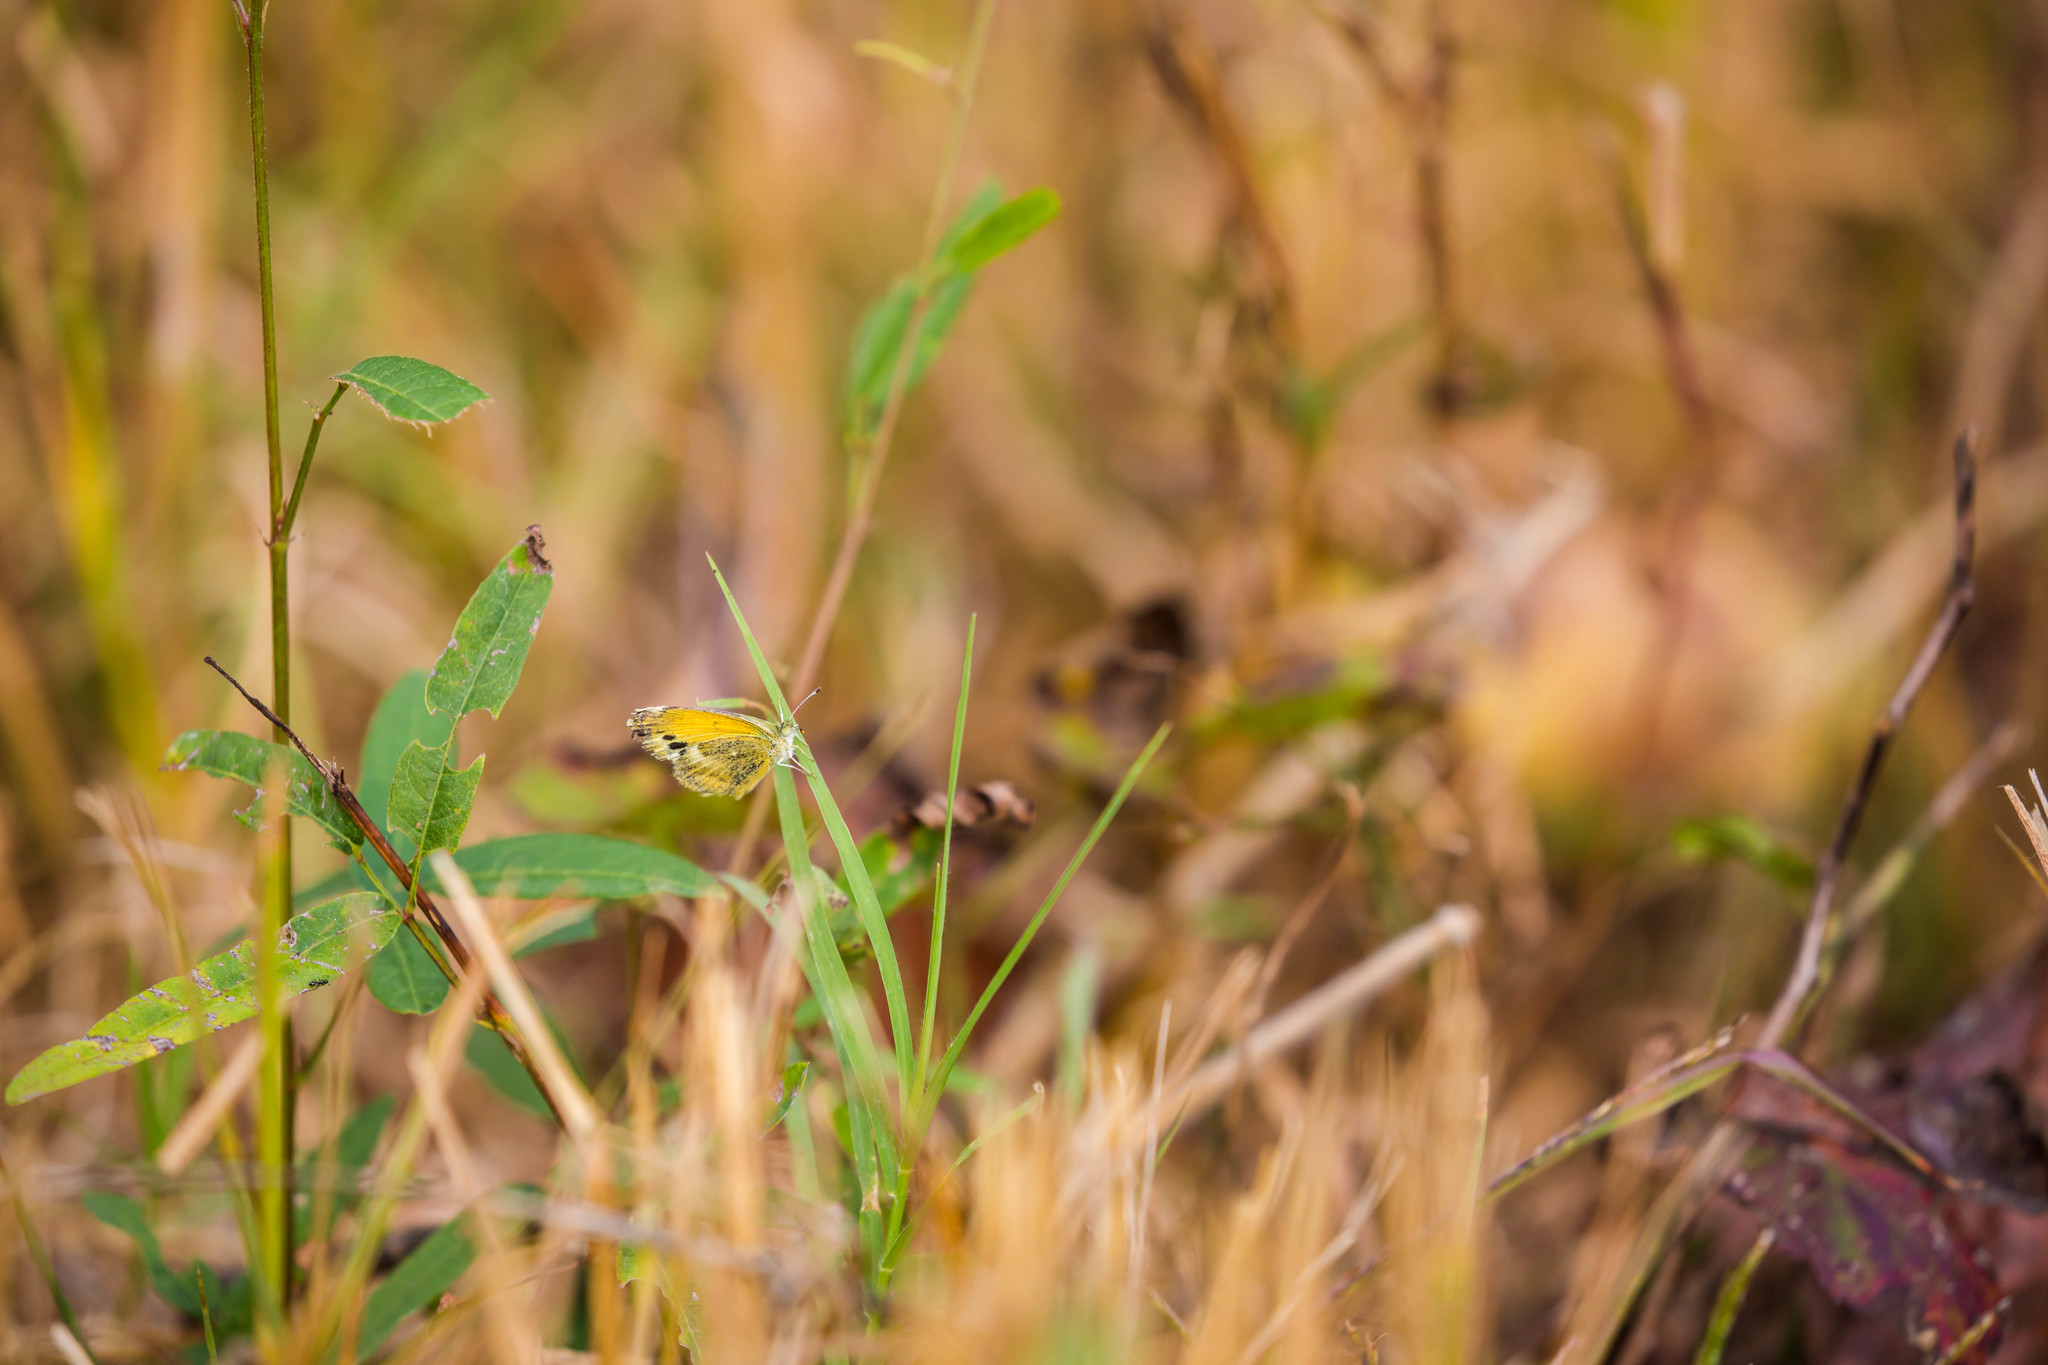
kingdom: Animalia
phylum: Arthropoda
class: Insecta
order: Lepidoptera
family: Pieridae
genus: Nathalis
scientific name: Nathalis iole
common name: Dainty sulphur
